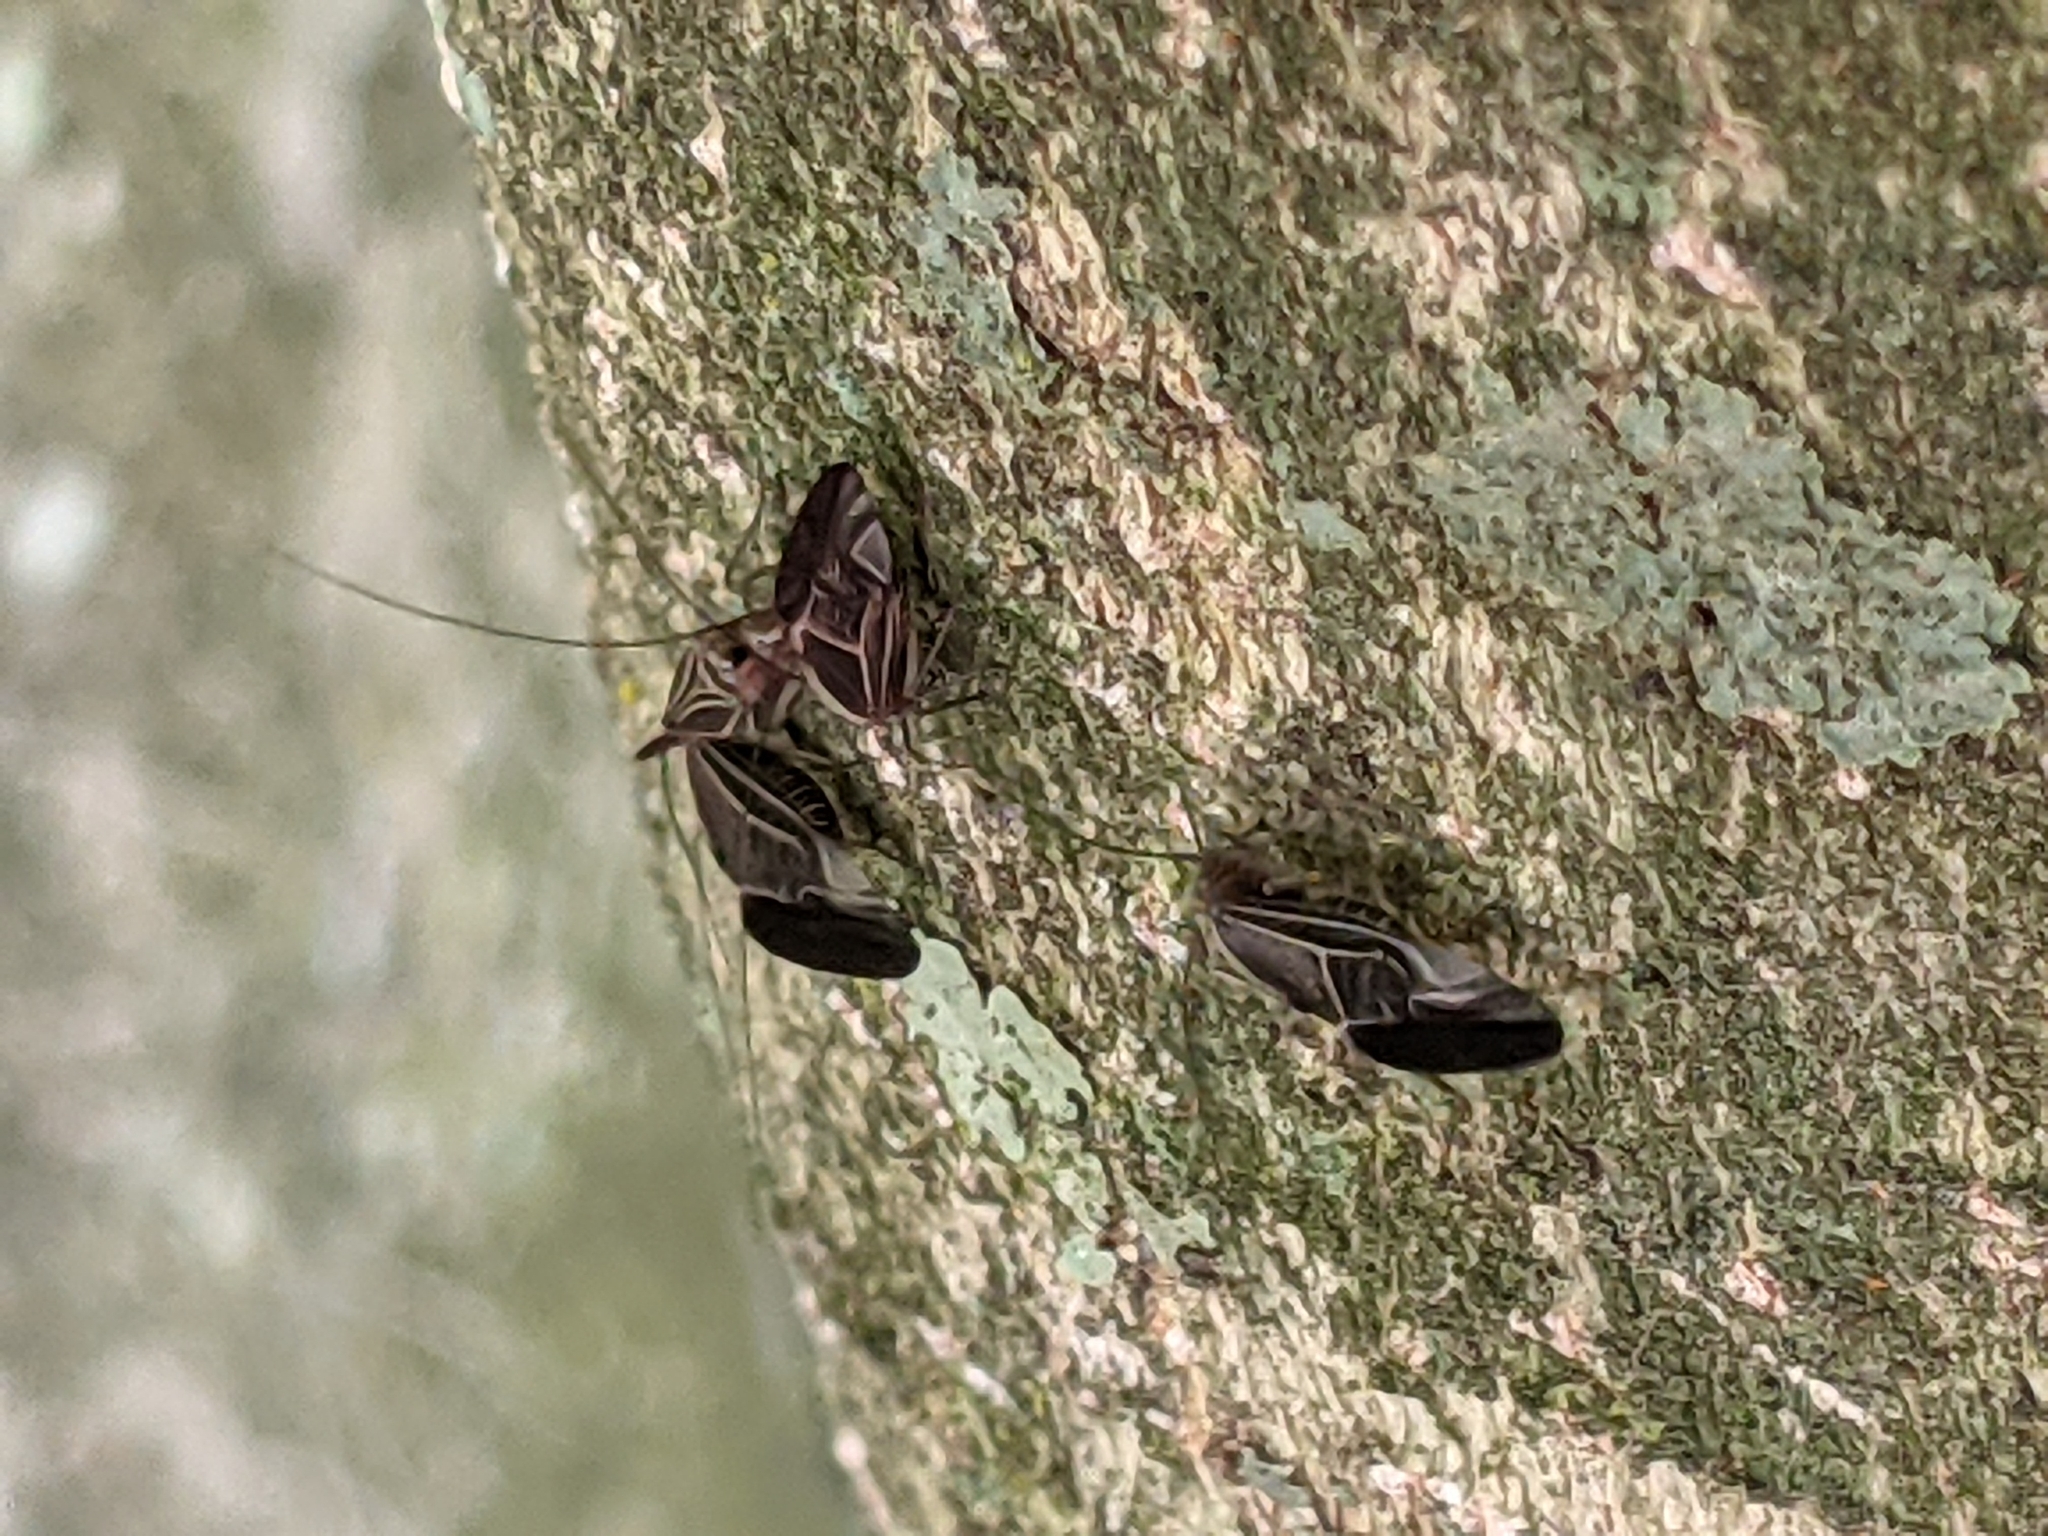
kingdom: Animalia
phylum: Arthropoda
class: Insecta
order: Psocodea
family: Psocidae
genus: Cerastipsocus
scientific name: Cerastipsocus venosus
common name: Tree cattle
